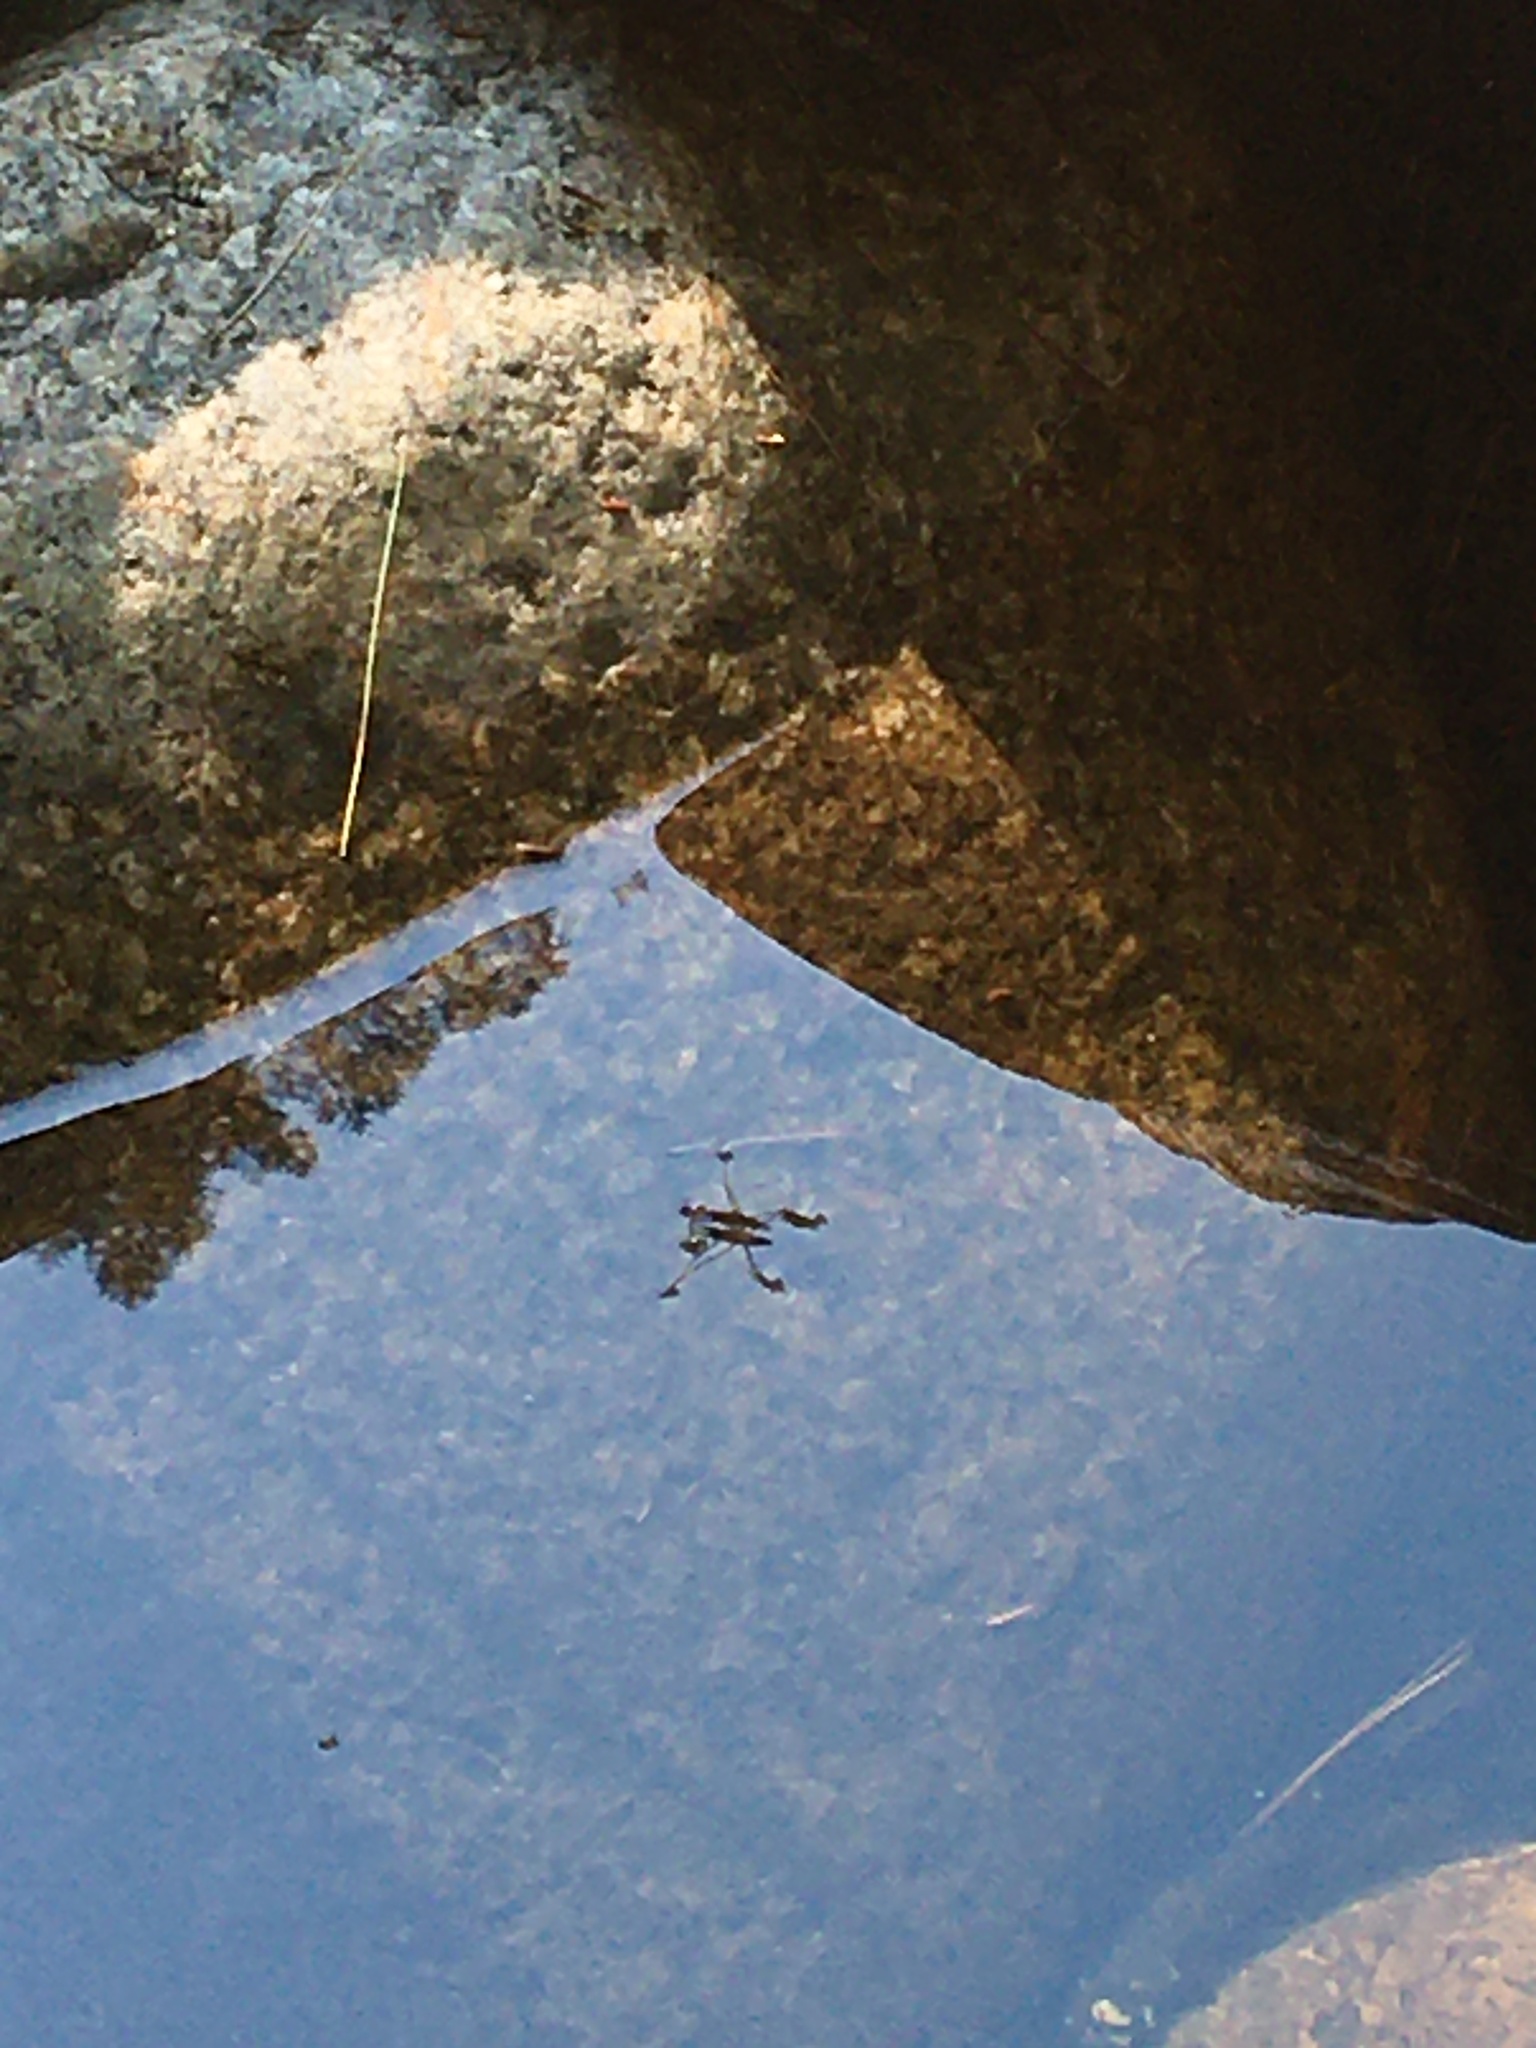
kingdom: Animalia
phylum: Arthropoda
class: Insecta
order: Hemiptera
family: Gerridae
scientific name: Gerridae
